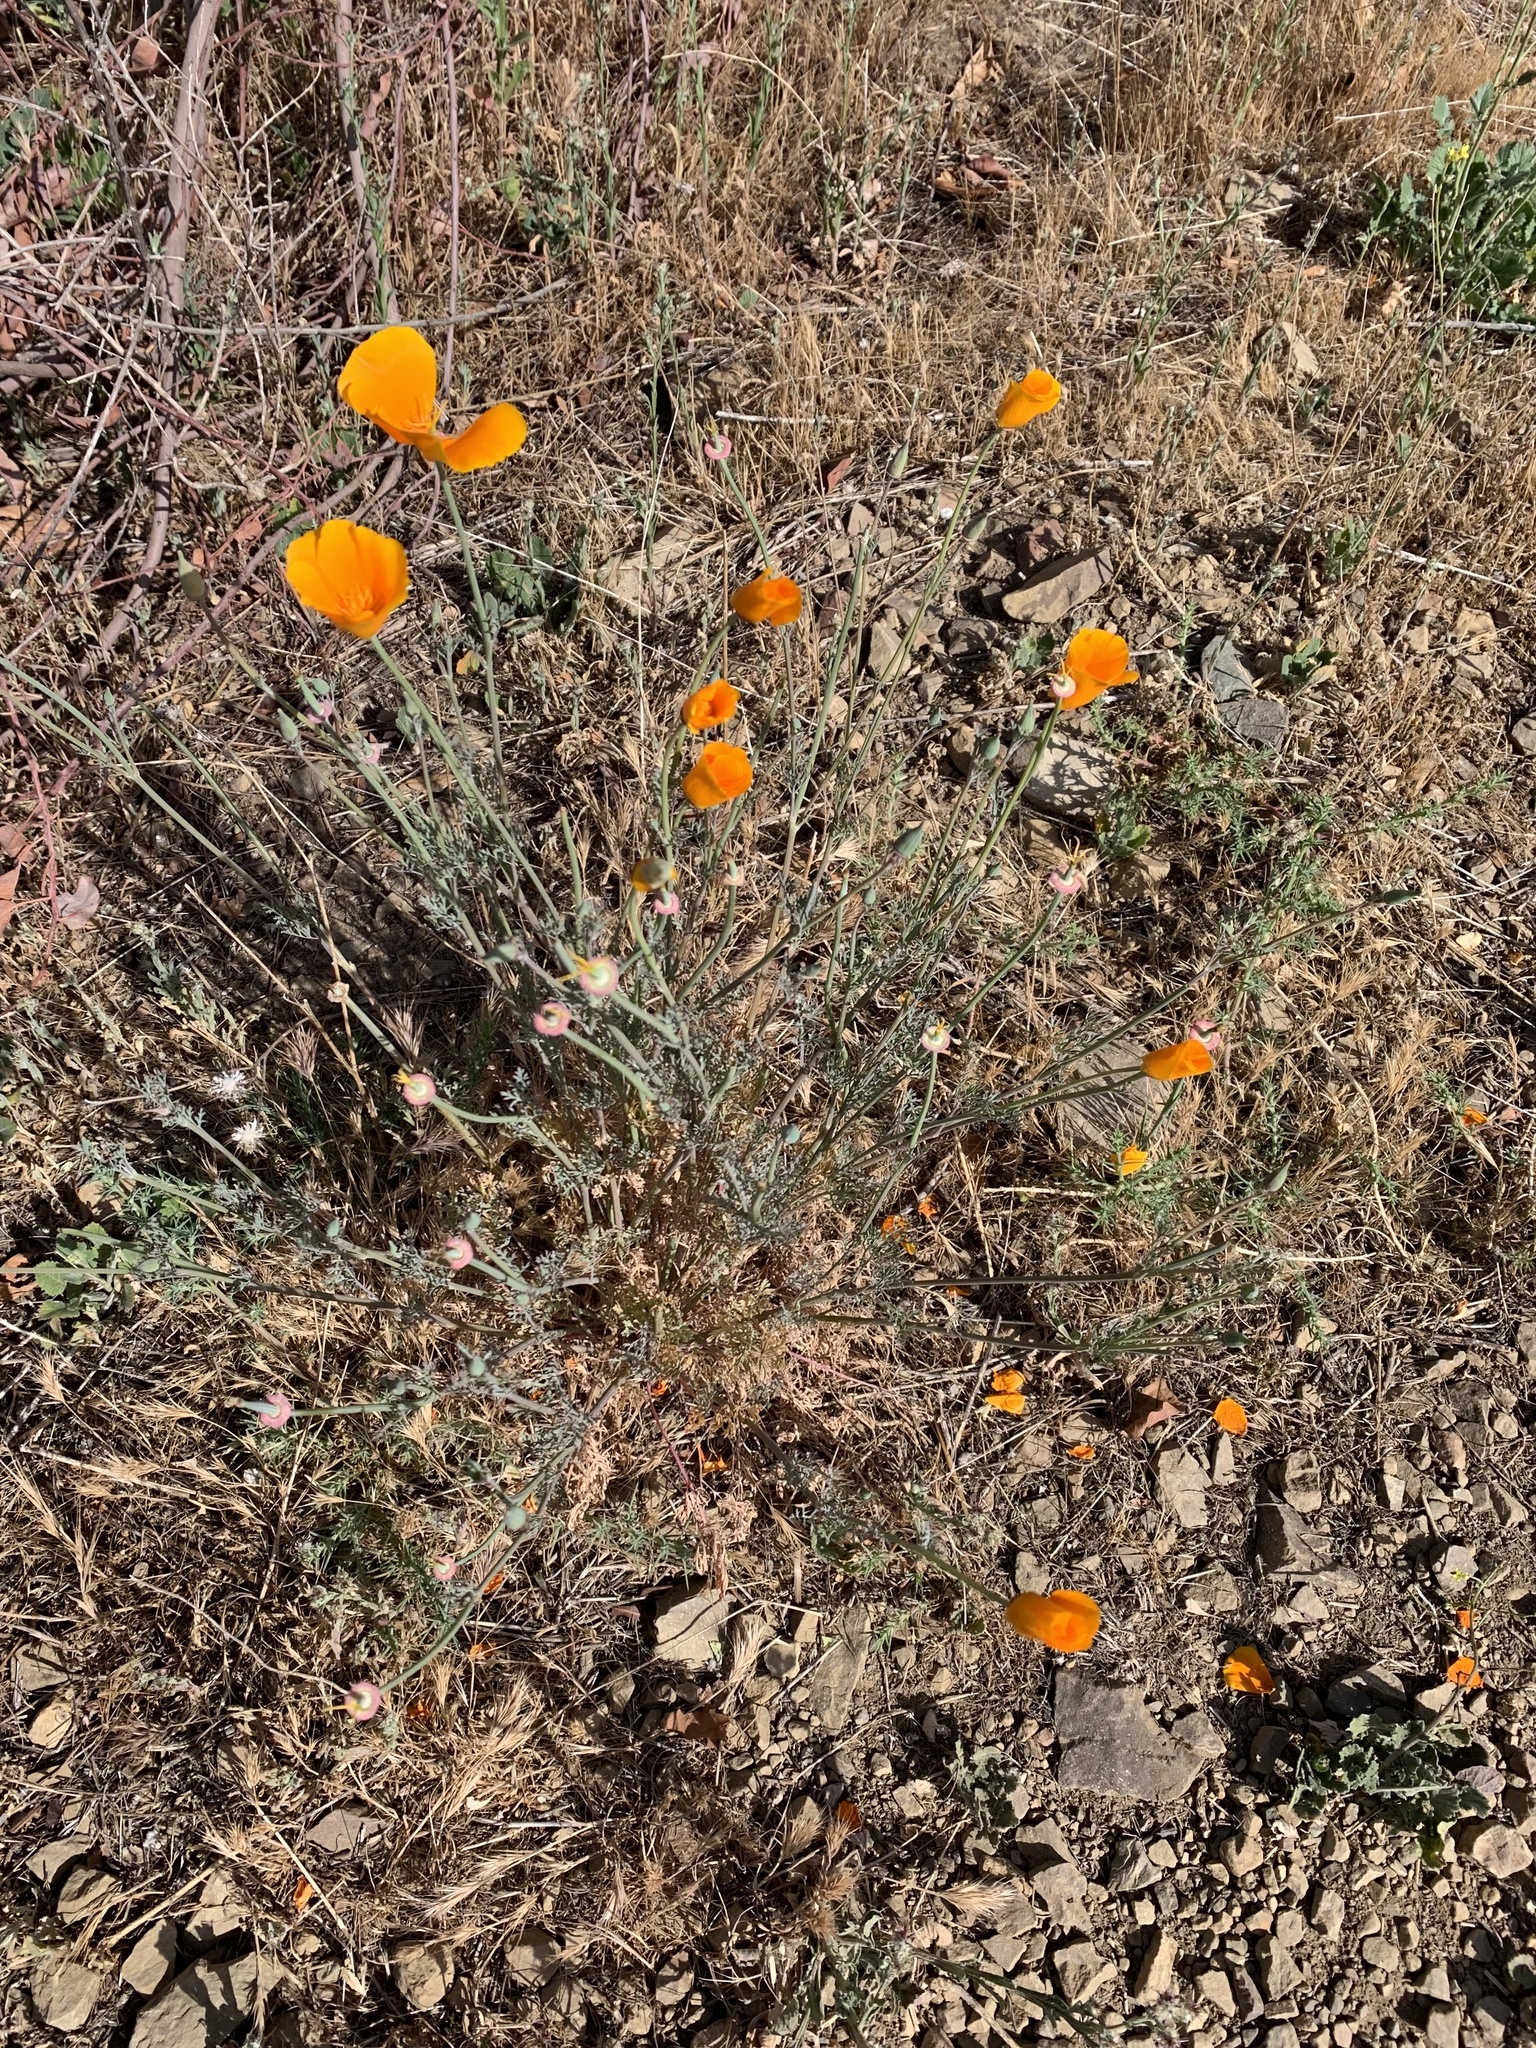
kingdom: Plantae
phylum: Tracheophyta
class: Magnoliopsida
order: Ranunculales
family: Papaveraceae
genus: Eschscholzia
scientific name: Eschscholzia californica
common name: California poppy
